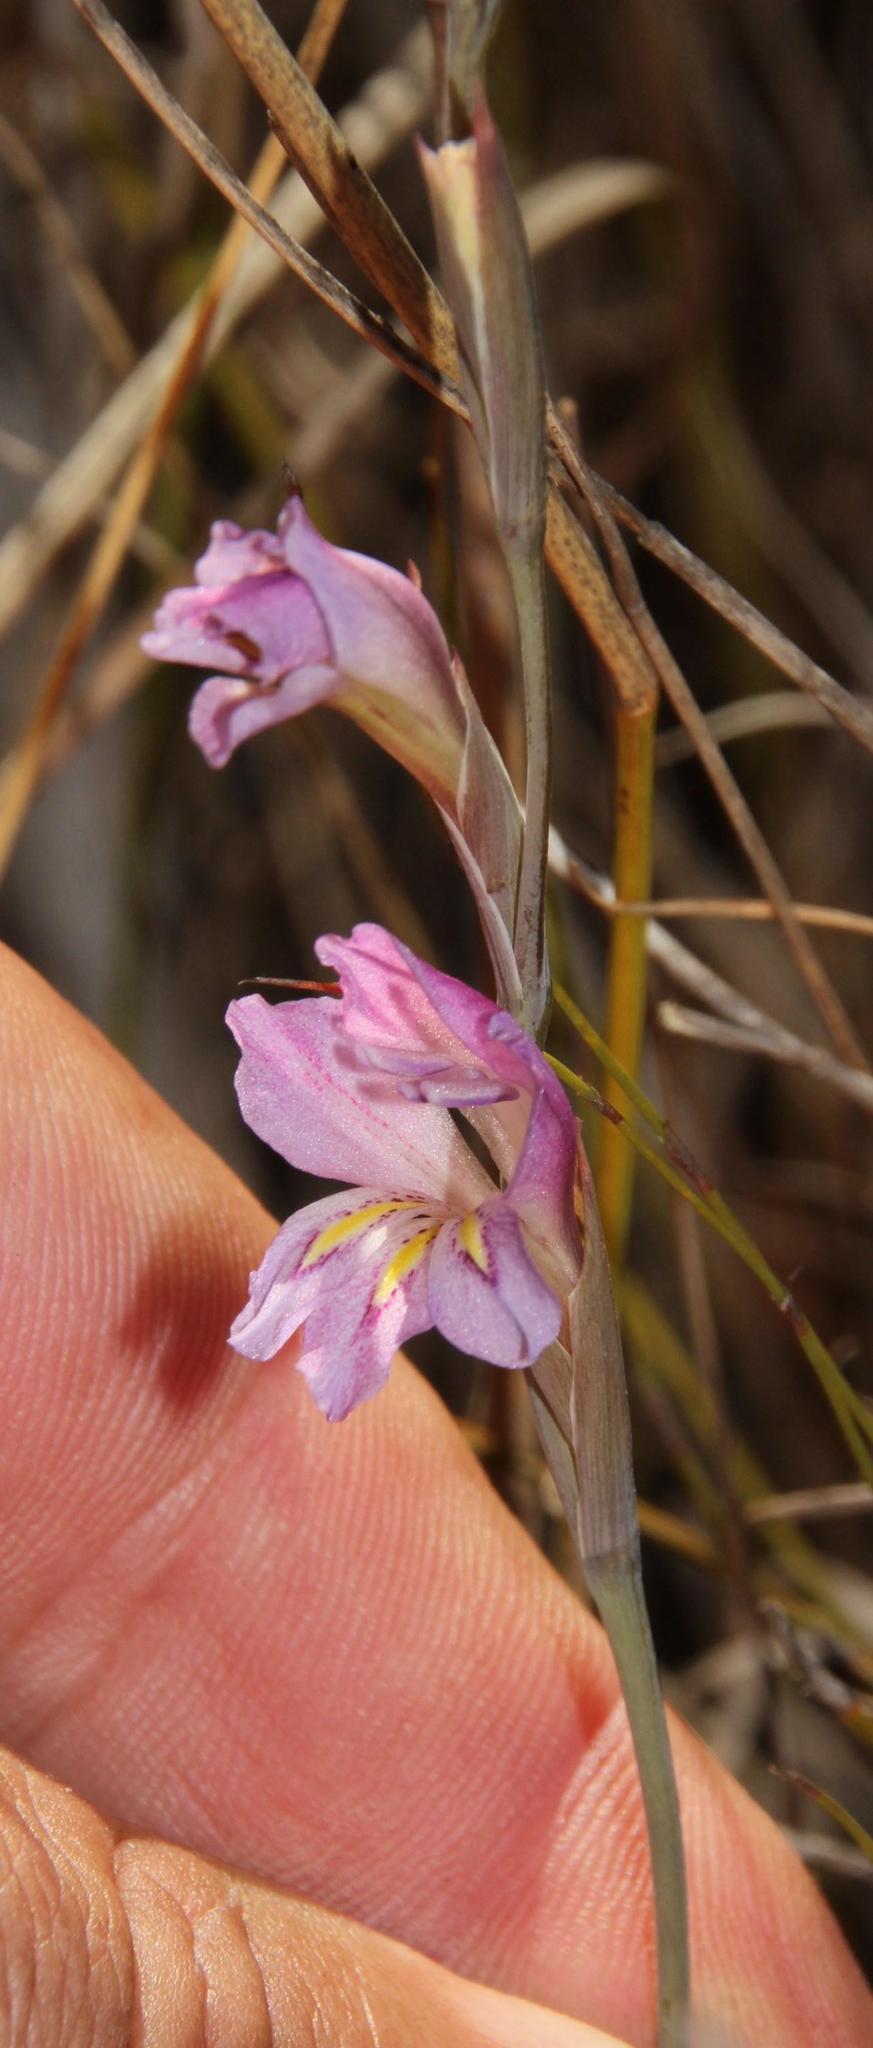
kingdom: Plantae
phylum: Tracheophyta
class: Liliopsida
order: Asparagales
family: Iridaceae
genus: Gladiolus
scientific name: Gladiolus brevifolius
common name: March pypie
